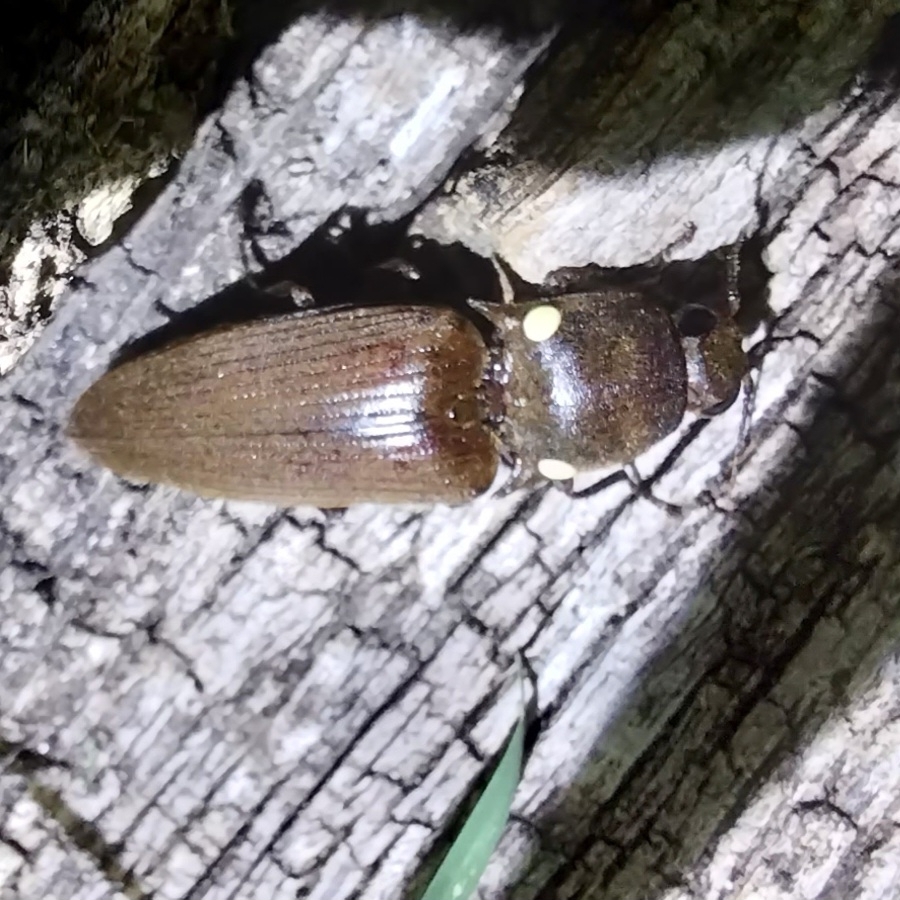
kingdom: Animalia
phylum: Arthropoda
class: Insecta
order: Coleoptera
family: Elateridae
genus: Pyrophorus
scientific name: Pyrophorus
